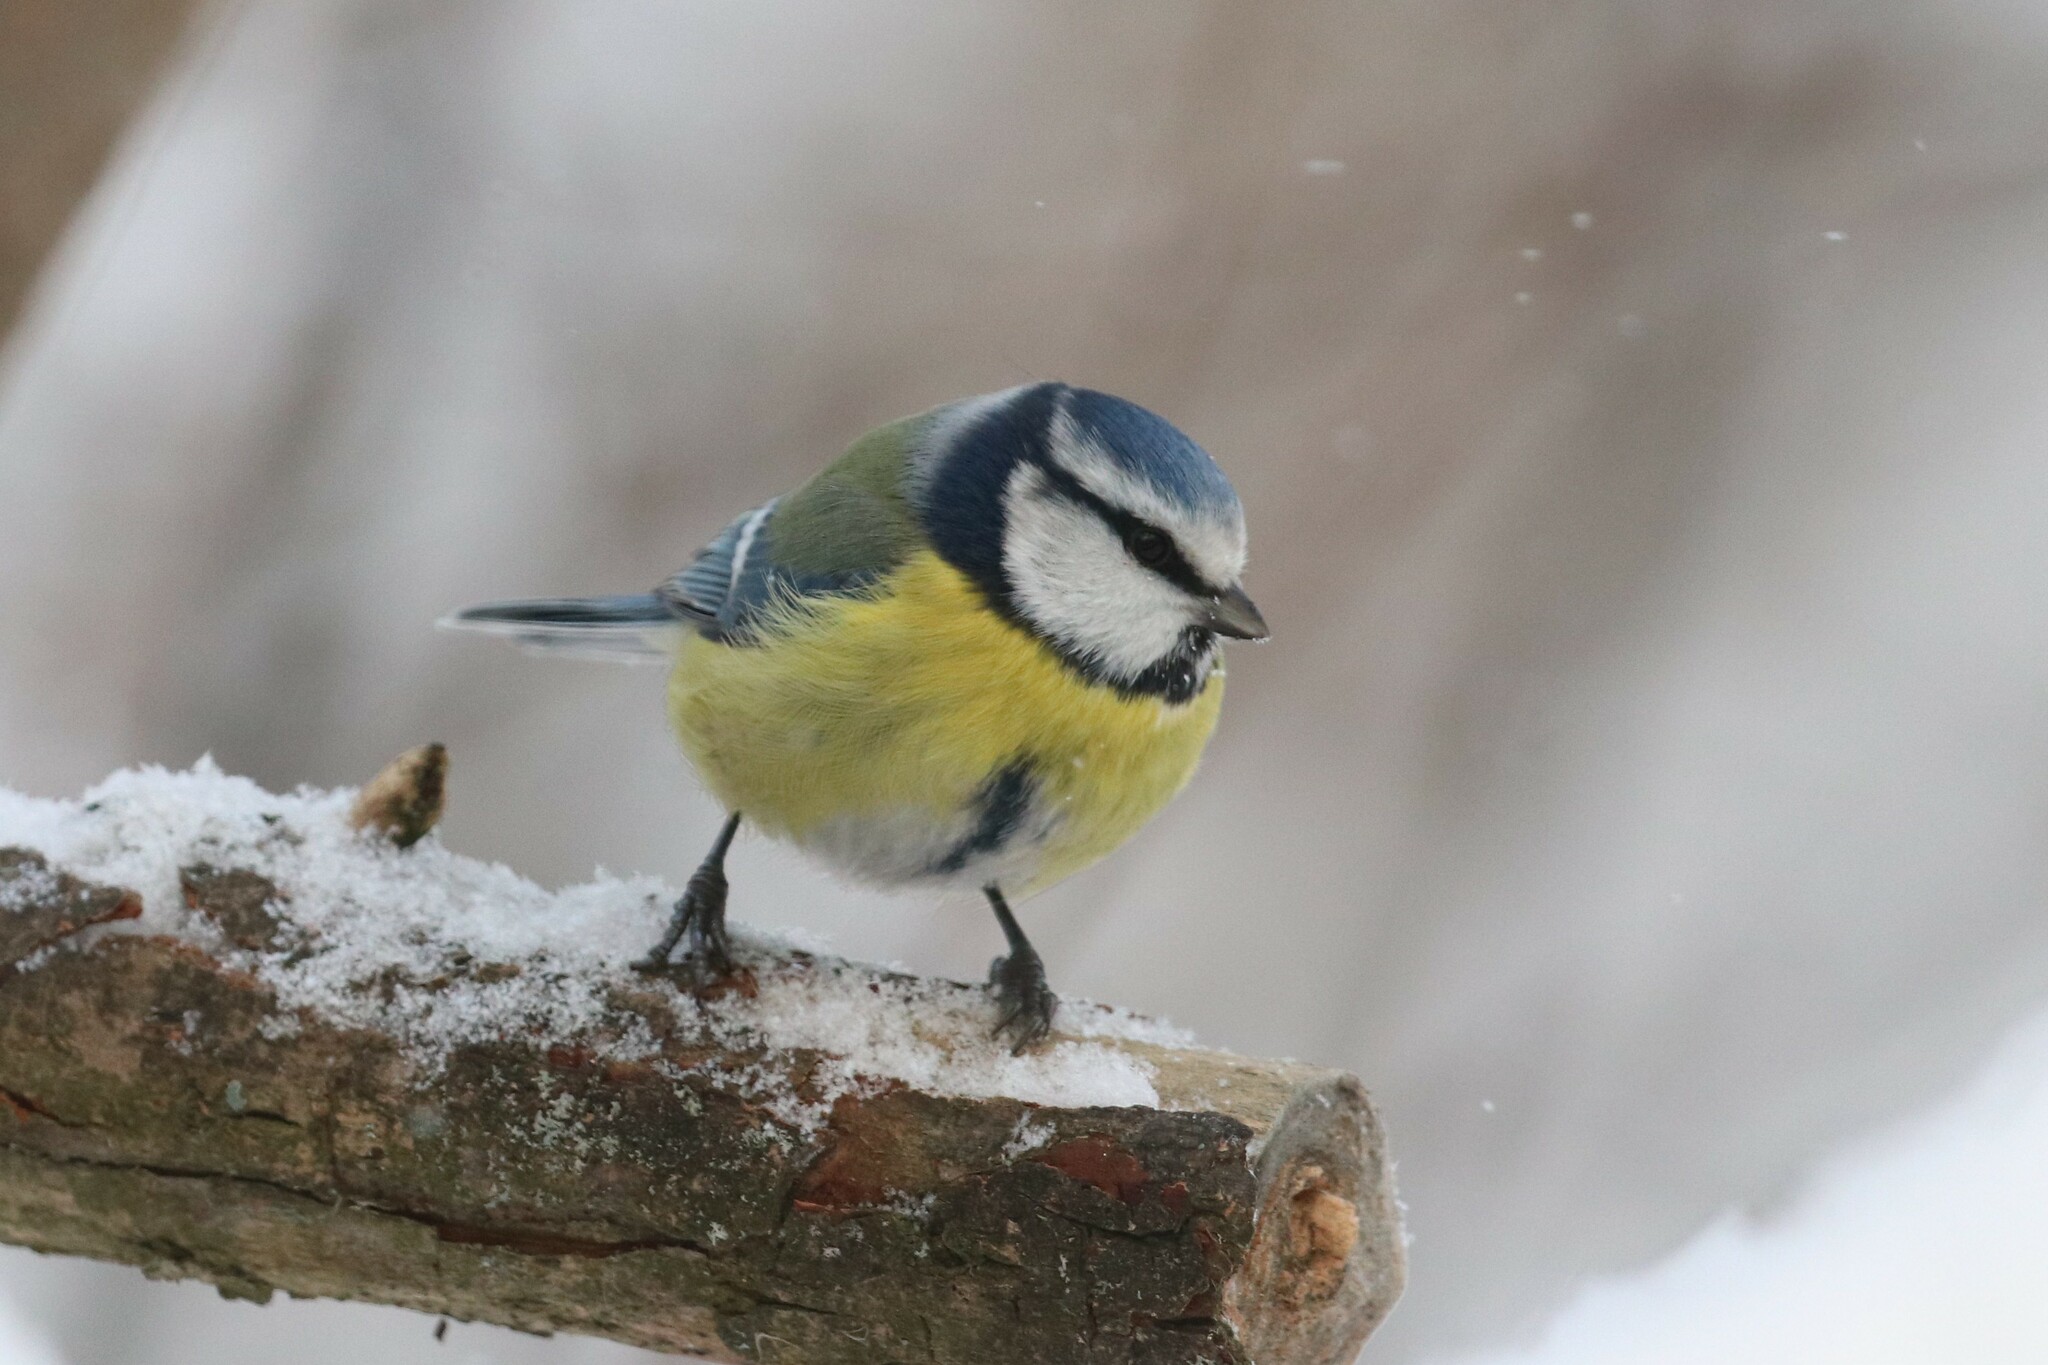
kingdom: Animalia
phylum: Chordata
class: Aves
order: Passeriformes
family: Paridae
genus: Cyanistes
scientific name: Cyanistes caeruleus
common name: Eurasian blue tit
